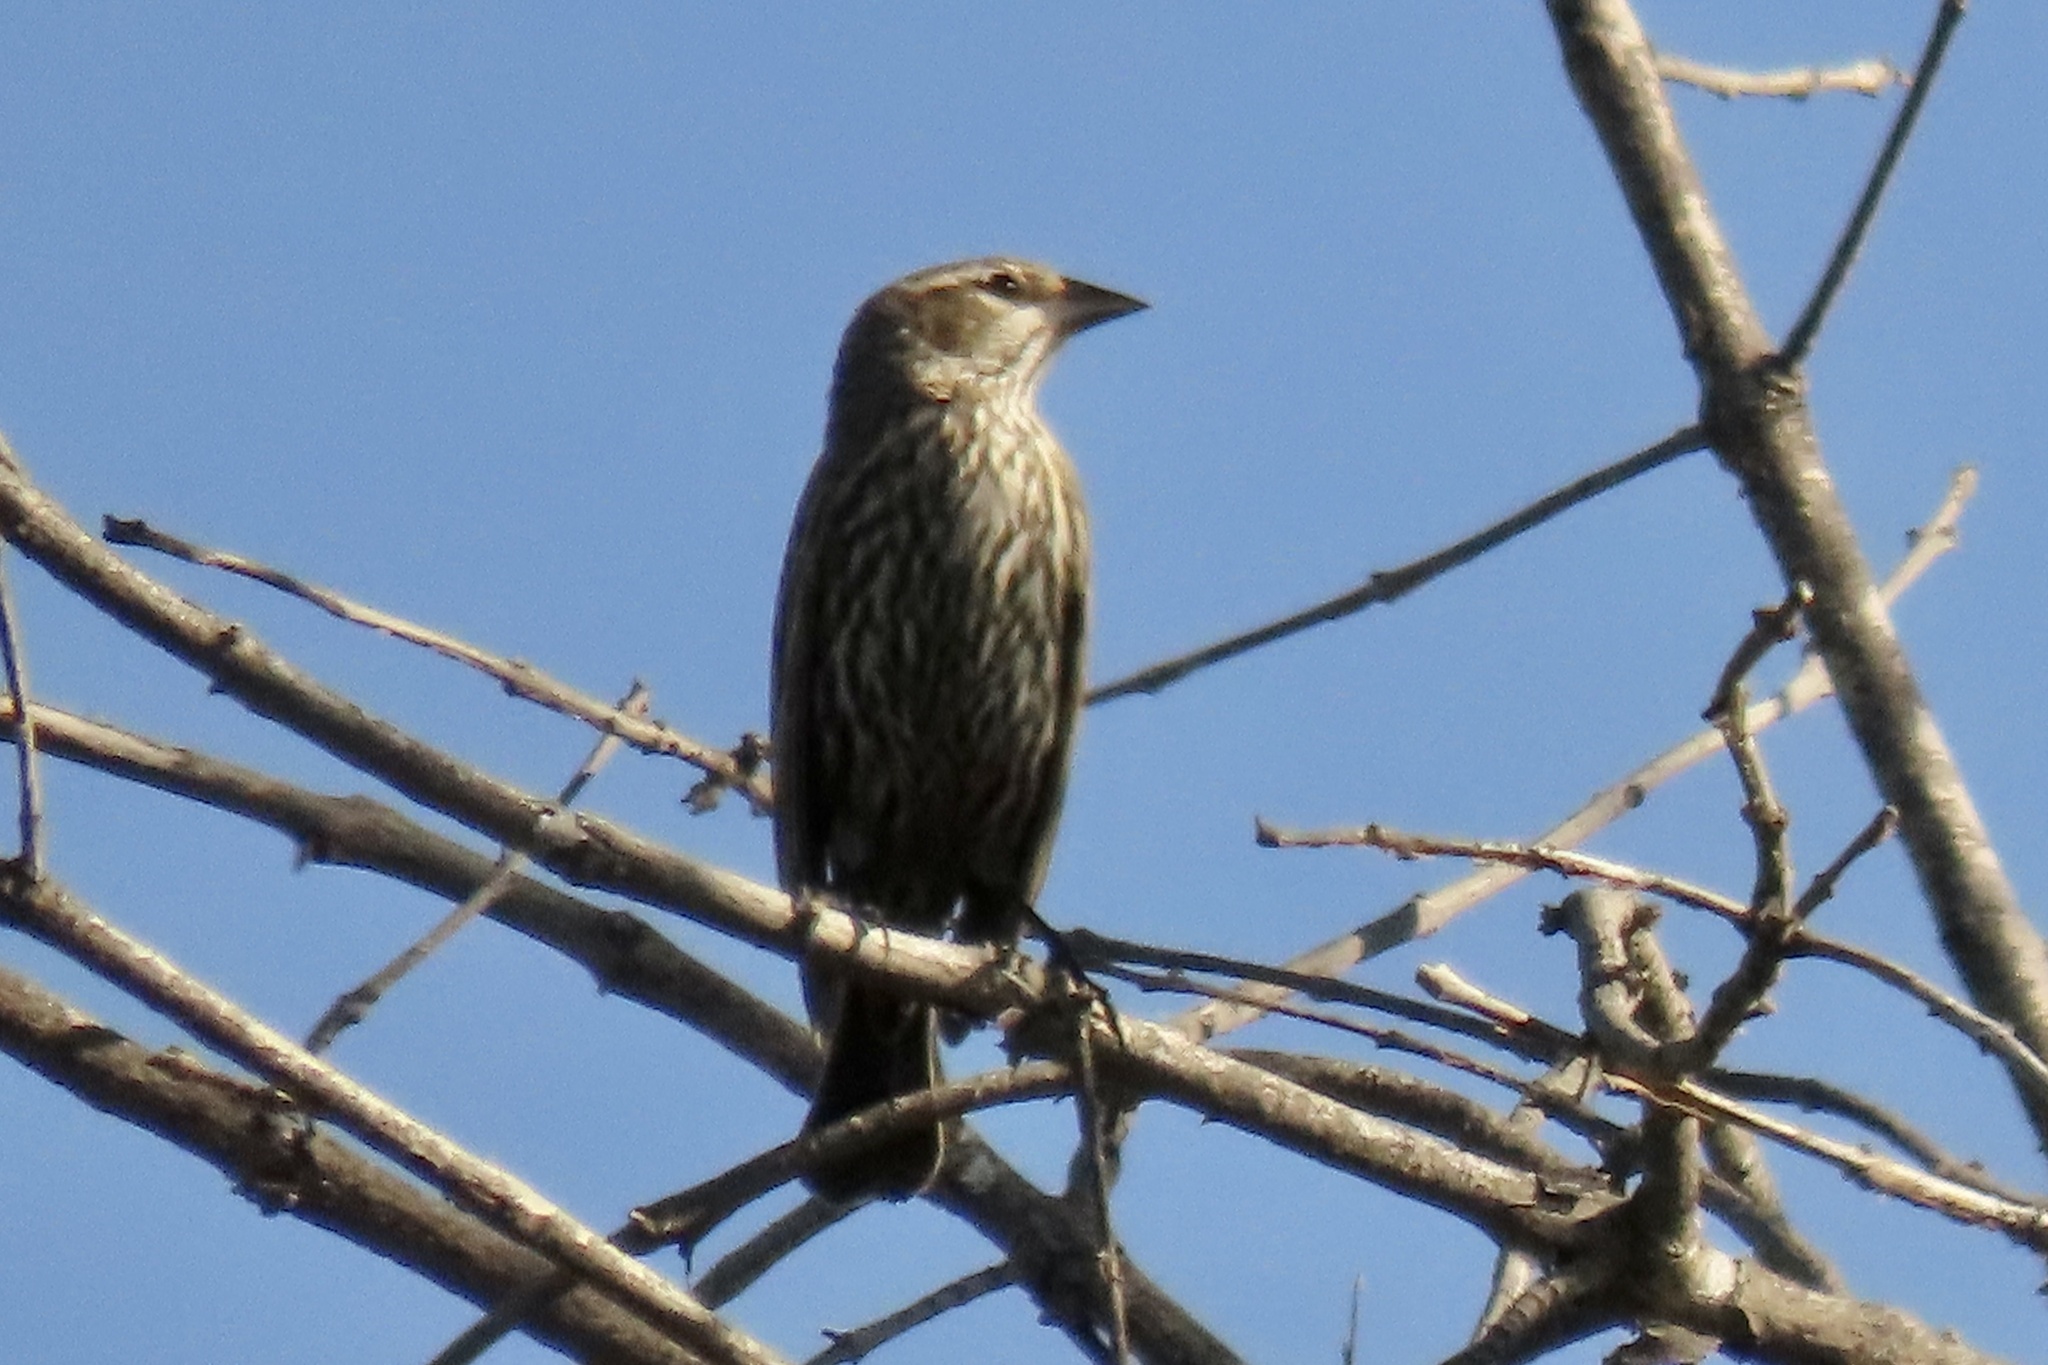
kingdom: Animalia
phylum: Chordata
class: Aves
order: Passeriformes
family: Icteridae
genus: Agelaius
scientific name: Agelaius phoeniceus
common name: Red-winged blackbird
